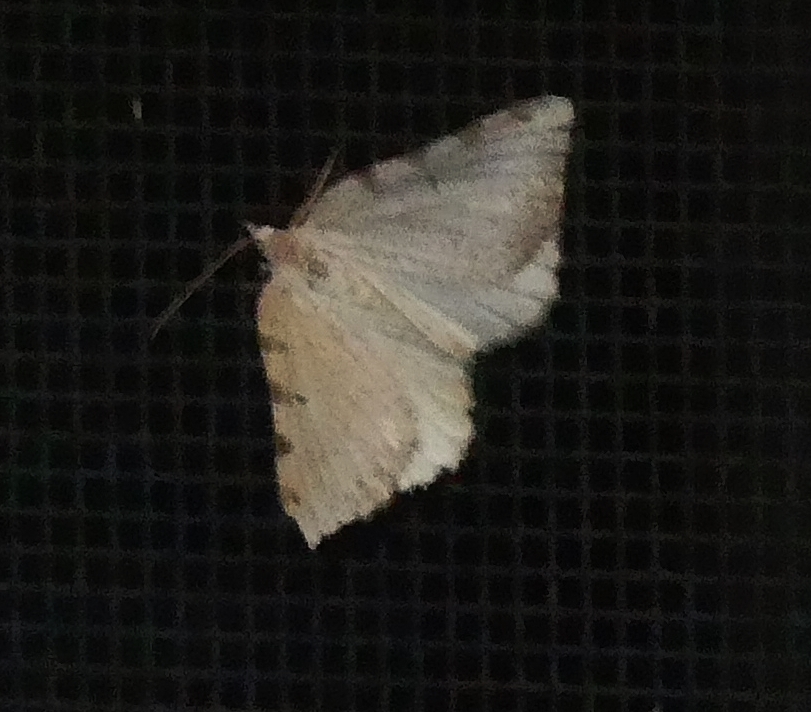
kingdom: Animalia
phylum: Arthropoda
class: Insecta
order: Lepidoptera
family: Geometridae
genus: Macaria
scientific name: Macaria coortaria
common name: Four-spotted granite
